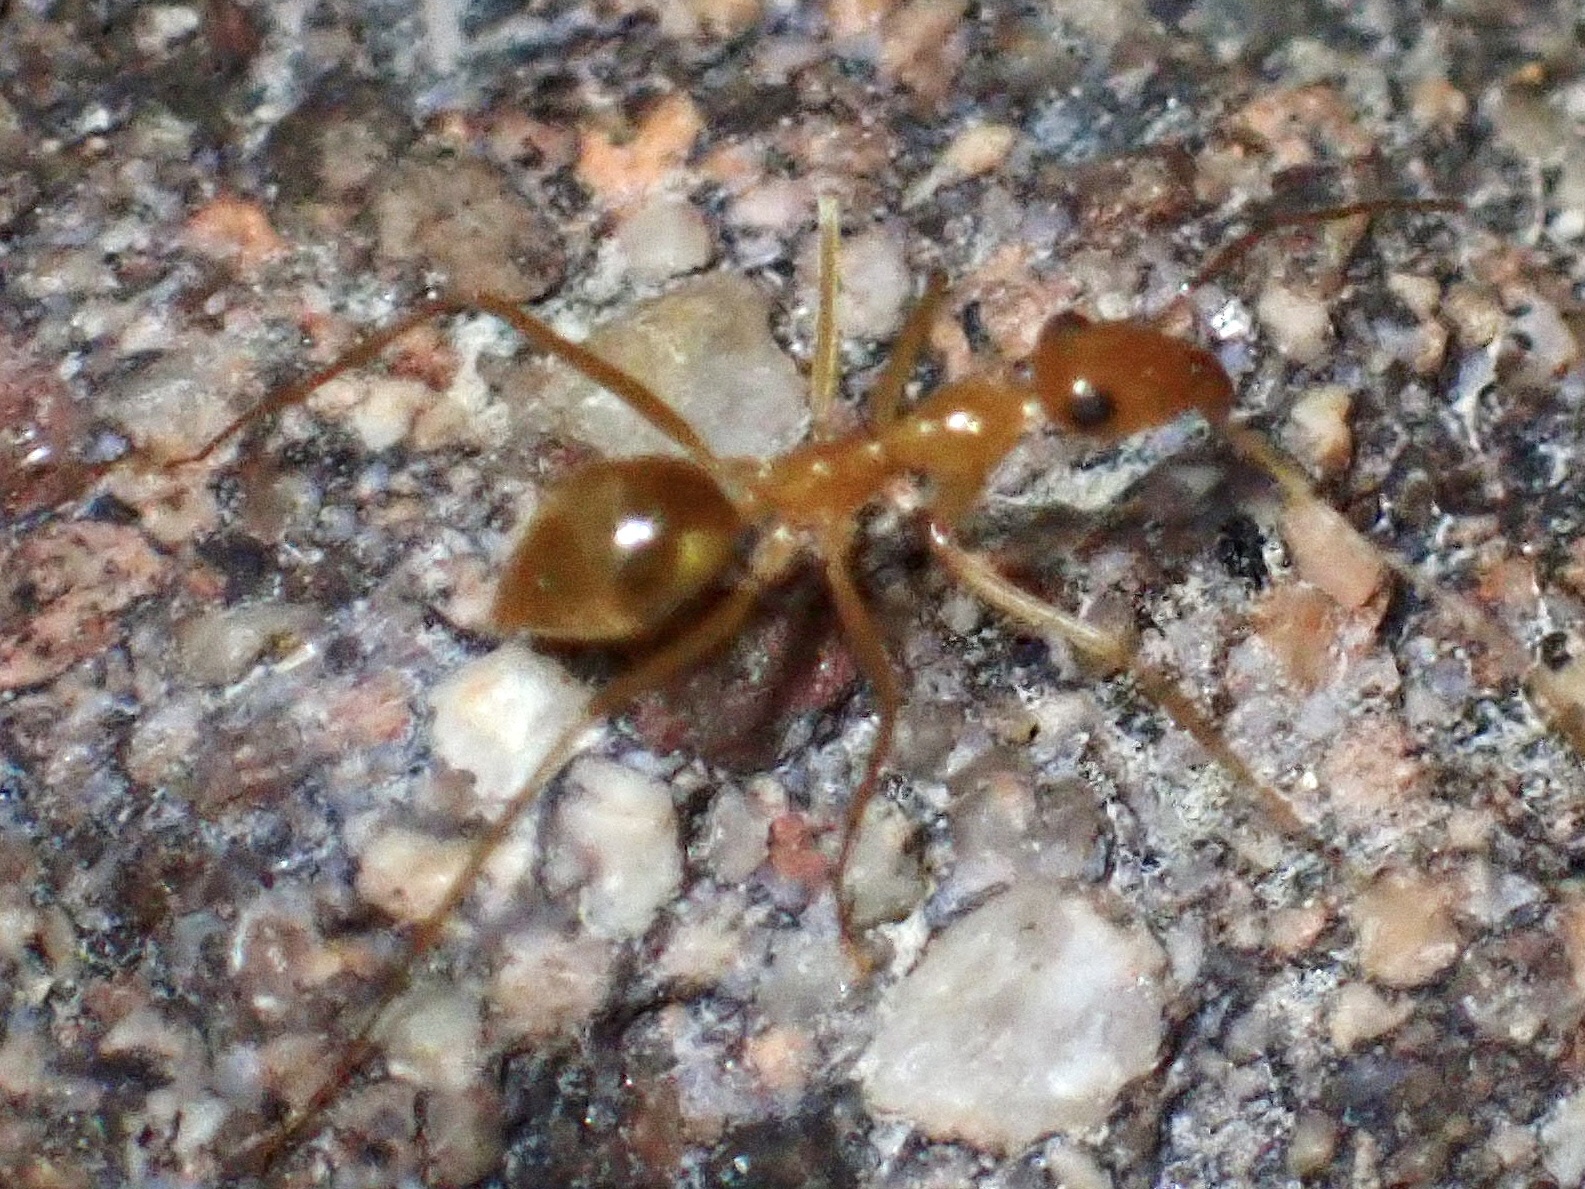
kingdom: Animalia
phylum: Arthropoda
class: Insecta
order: Hymenoptera
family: Formicidae
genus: Myrmecocystus
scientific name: Myrmecocystus mexicanus
